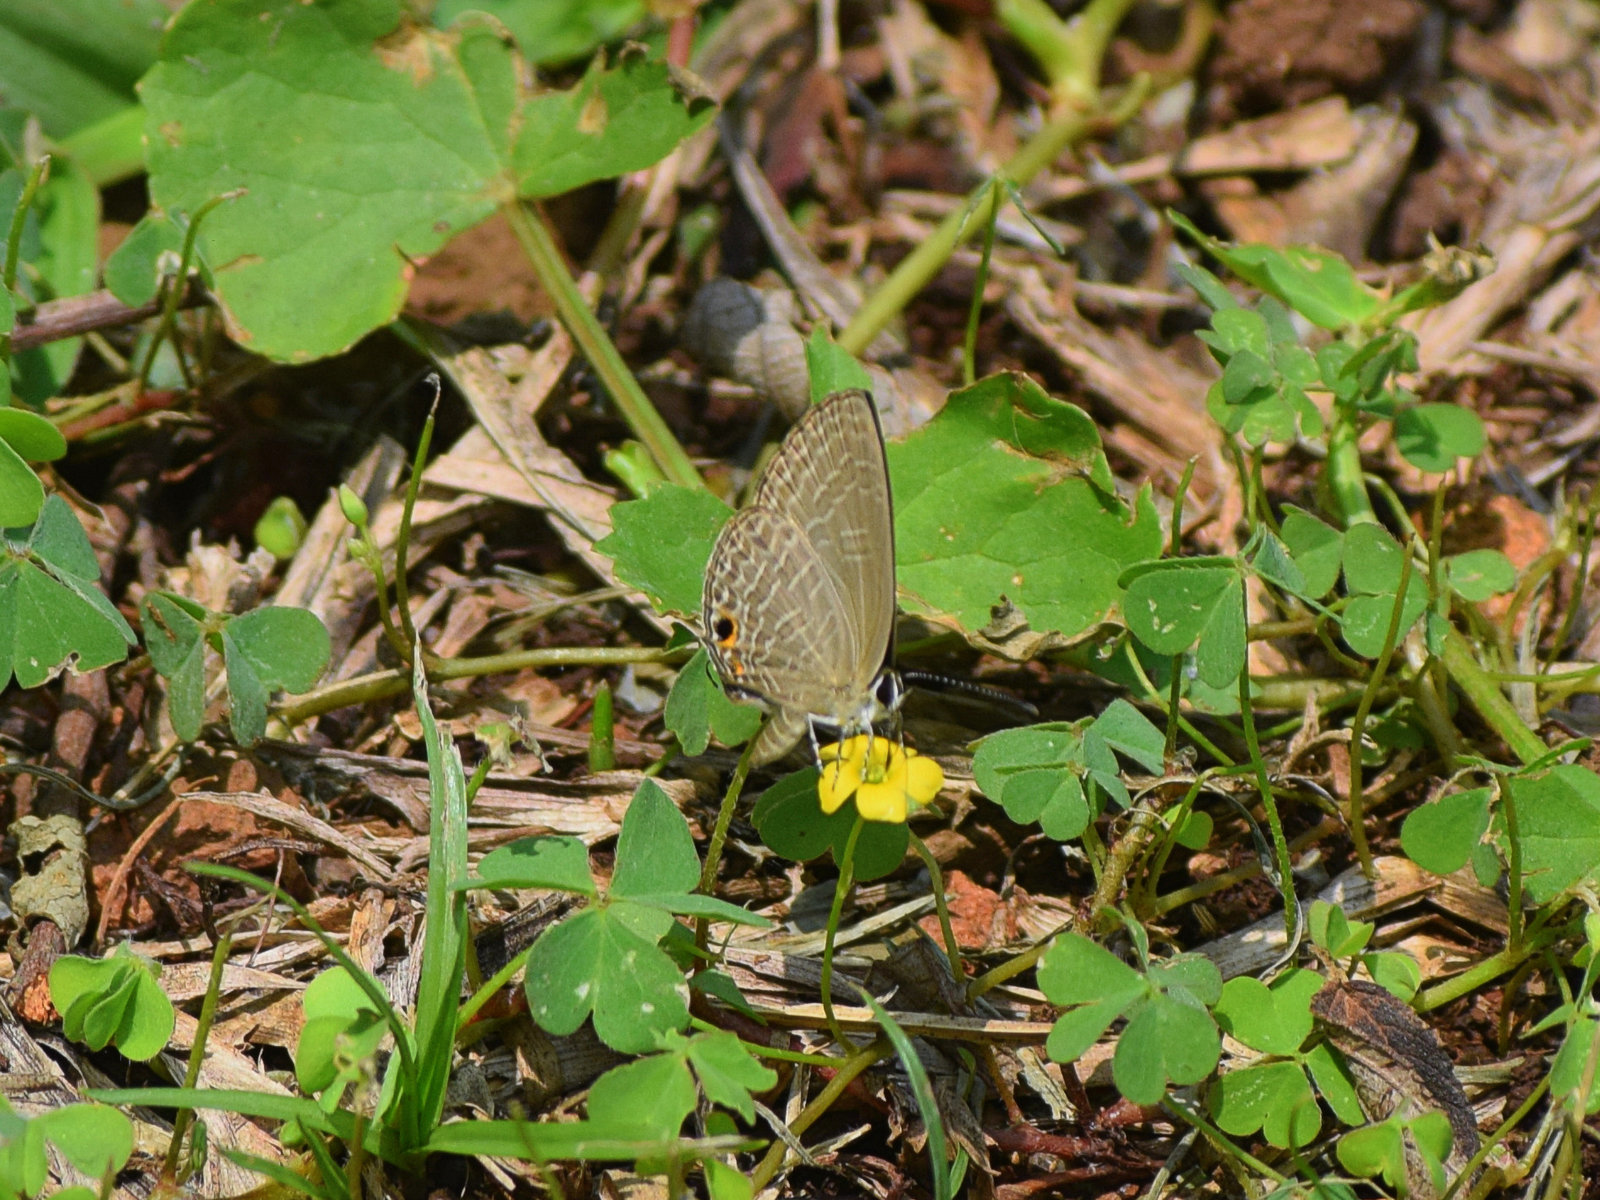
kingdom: Animalia
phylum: Arthropoda
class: Insecta
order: Lepidoptera
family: Lycaenidae
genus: Jamides
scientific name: Jamides bochus
